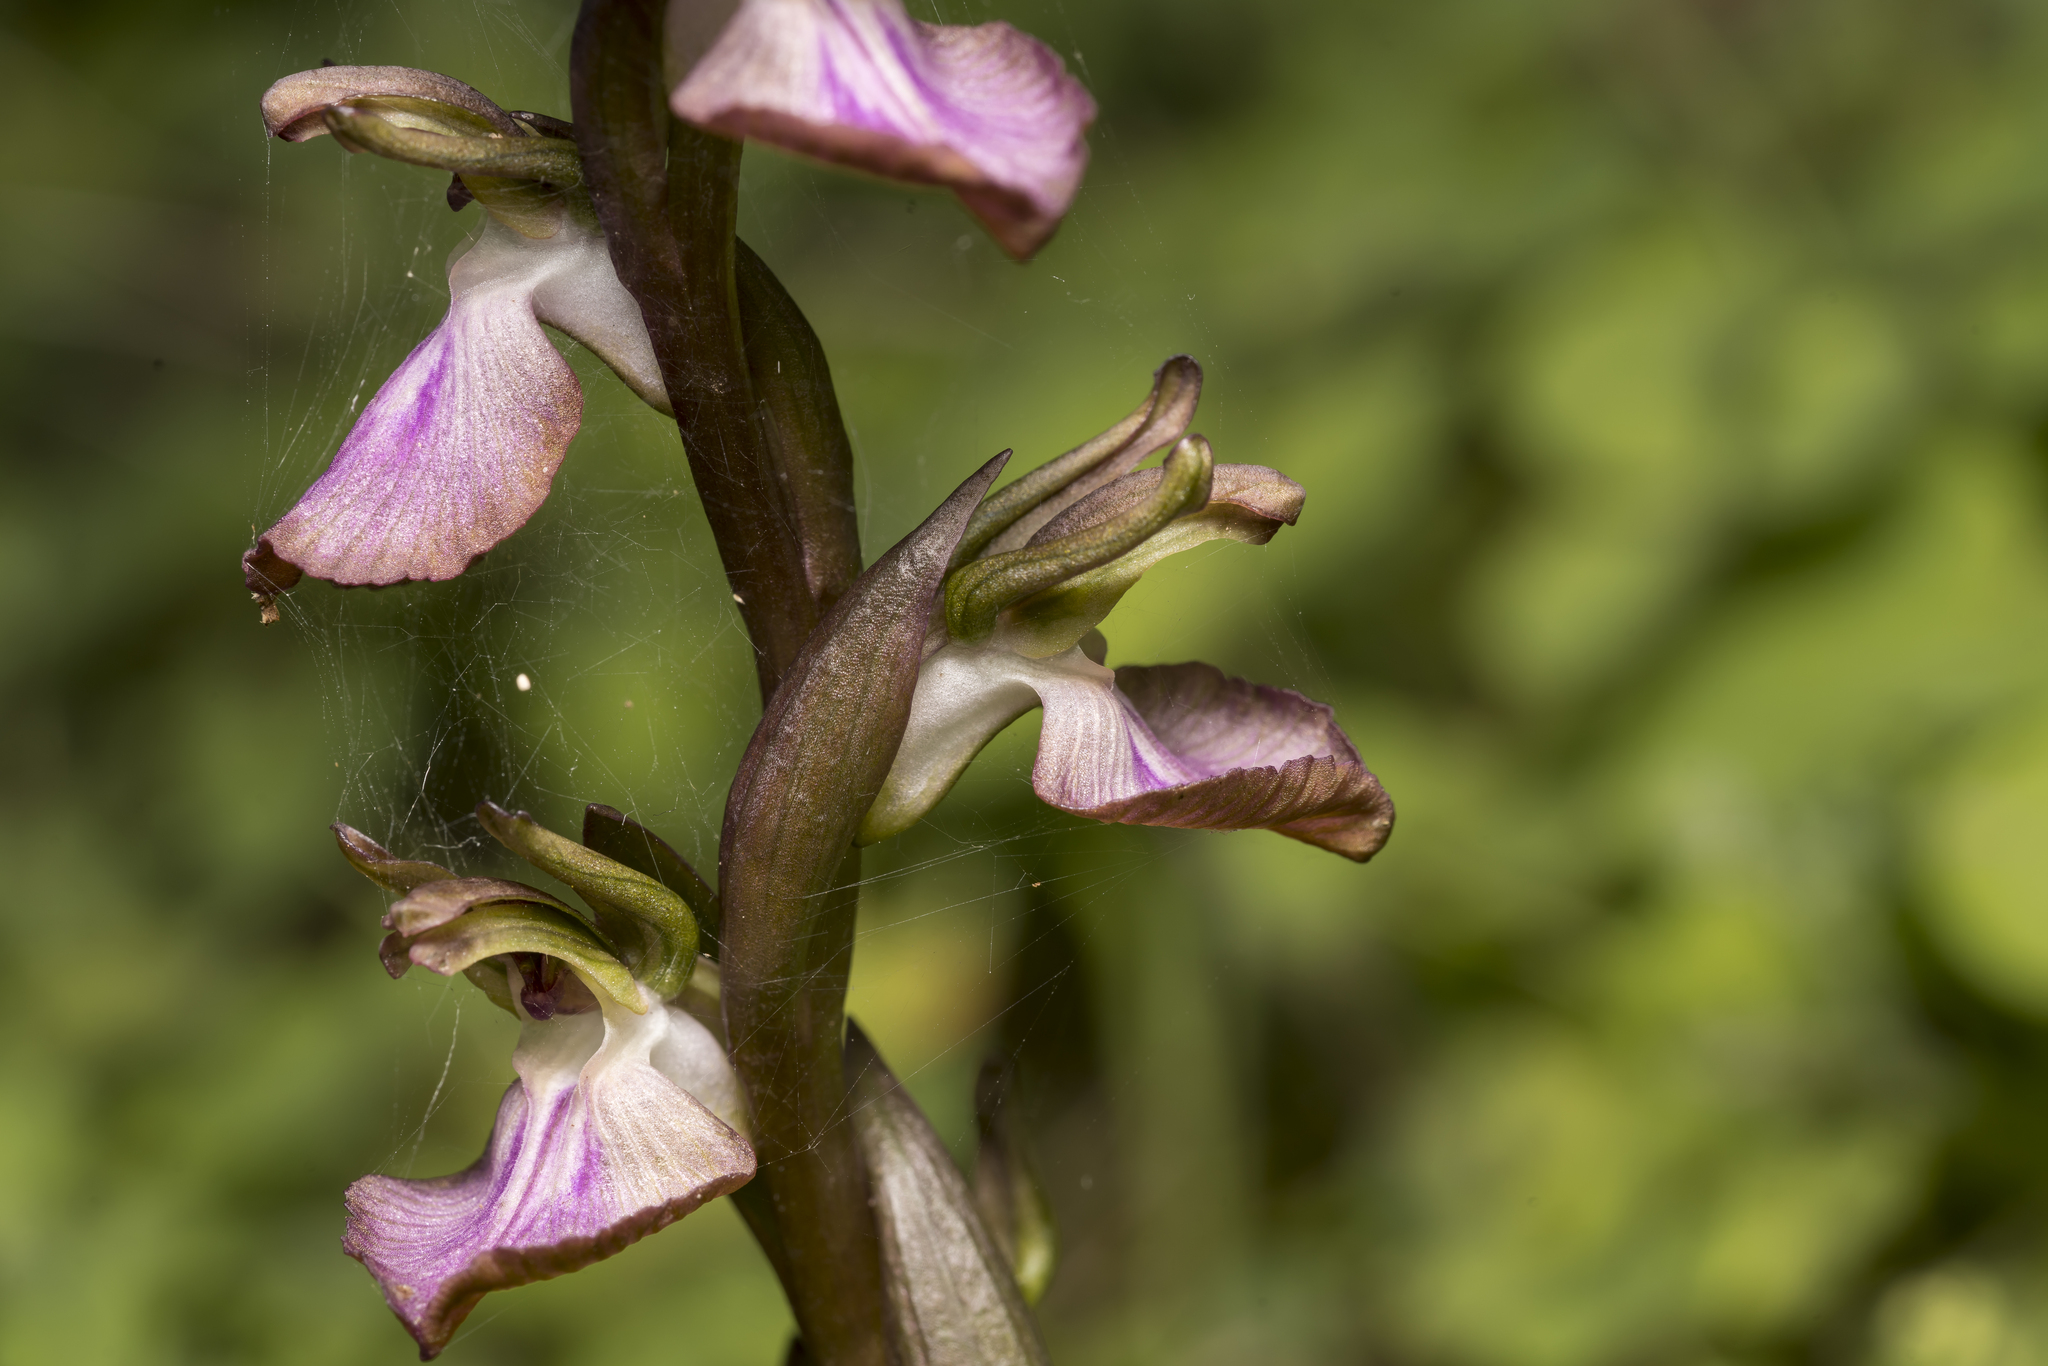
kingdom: Plantae
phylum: Tracheophyta
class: Liliopsida
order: Asparagales
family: Orchidaceae
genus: Anacamptis
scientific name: Anacamptis collina
